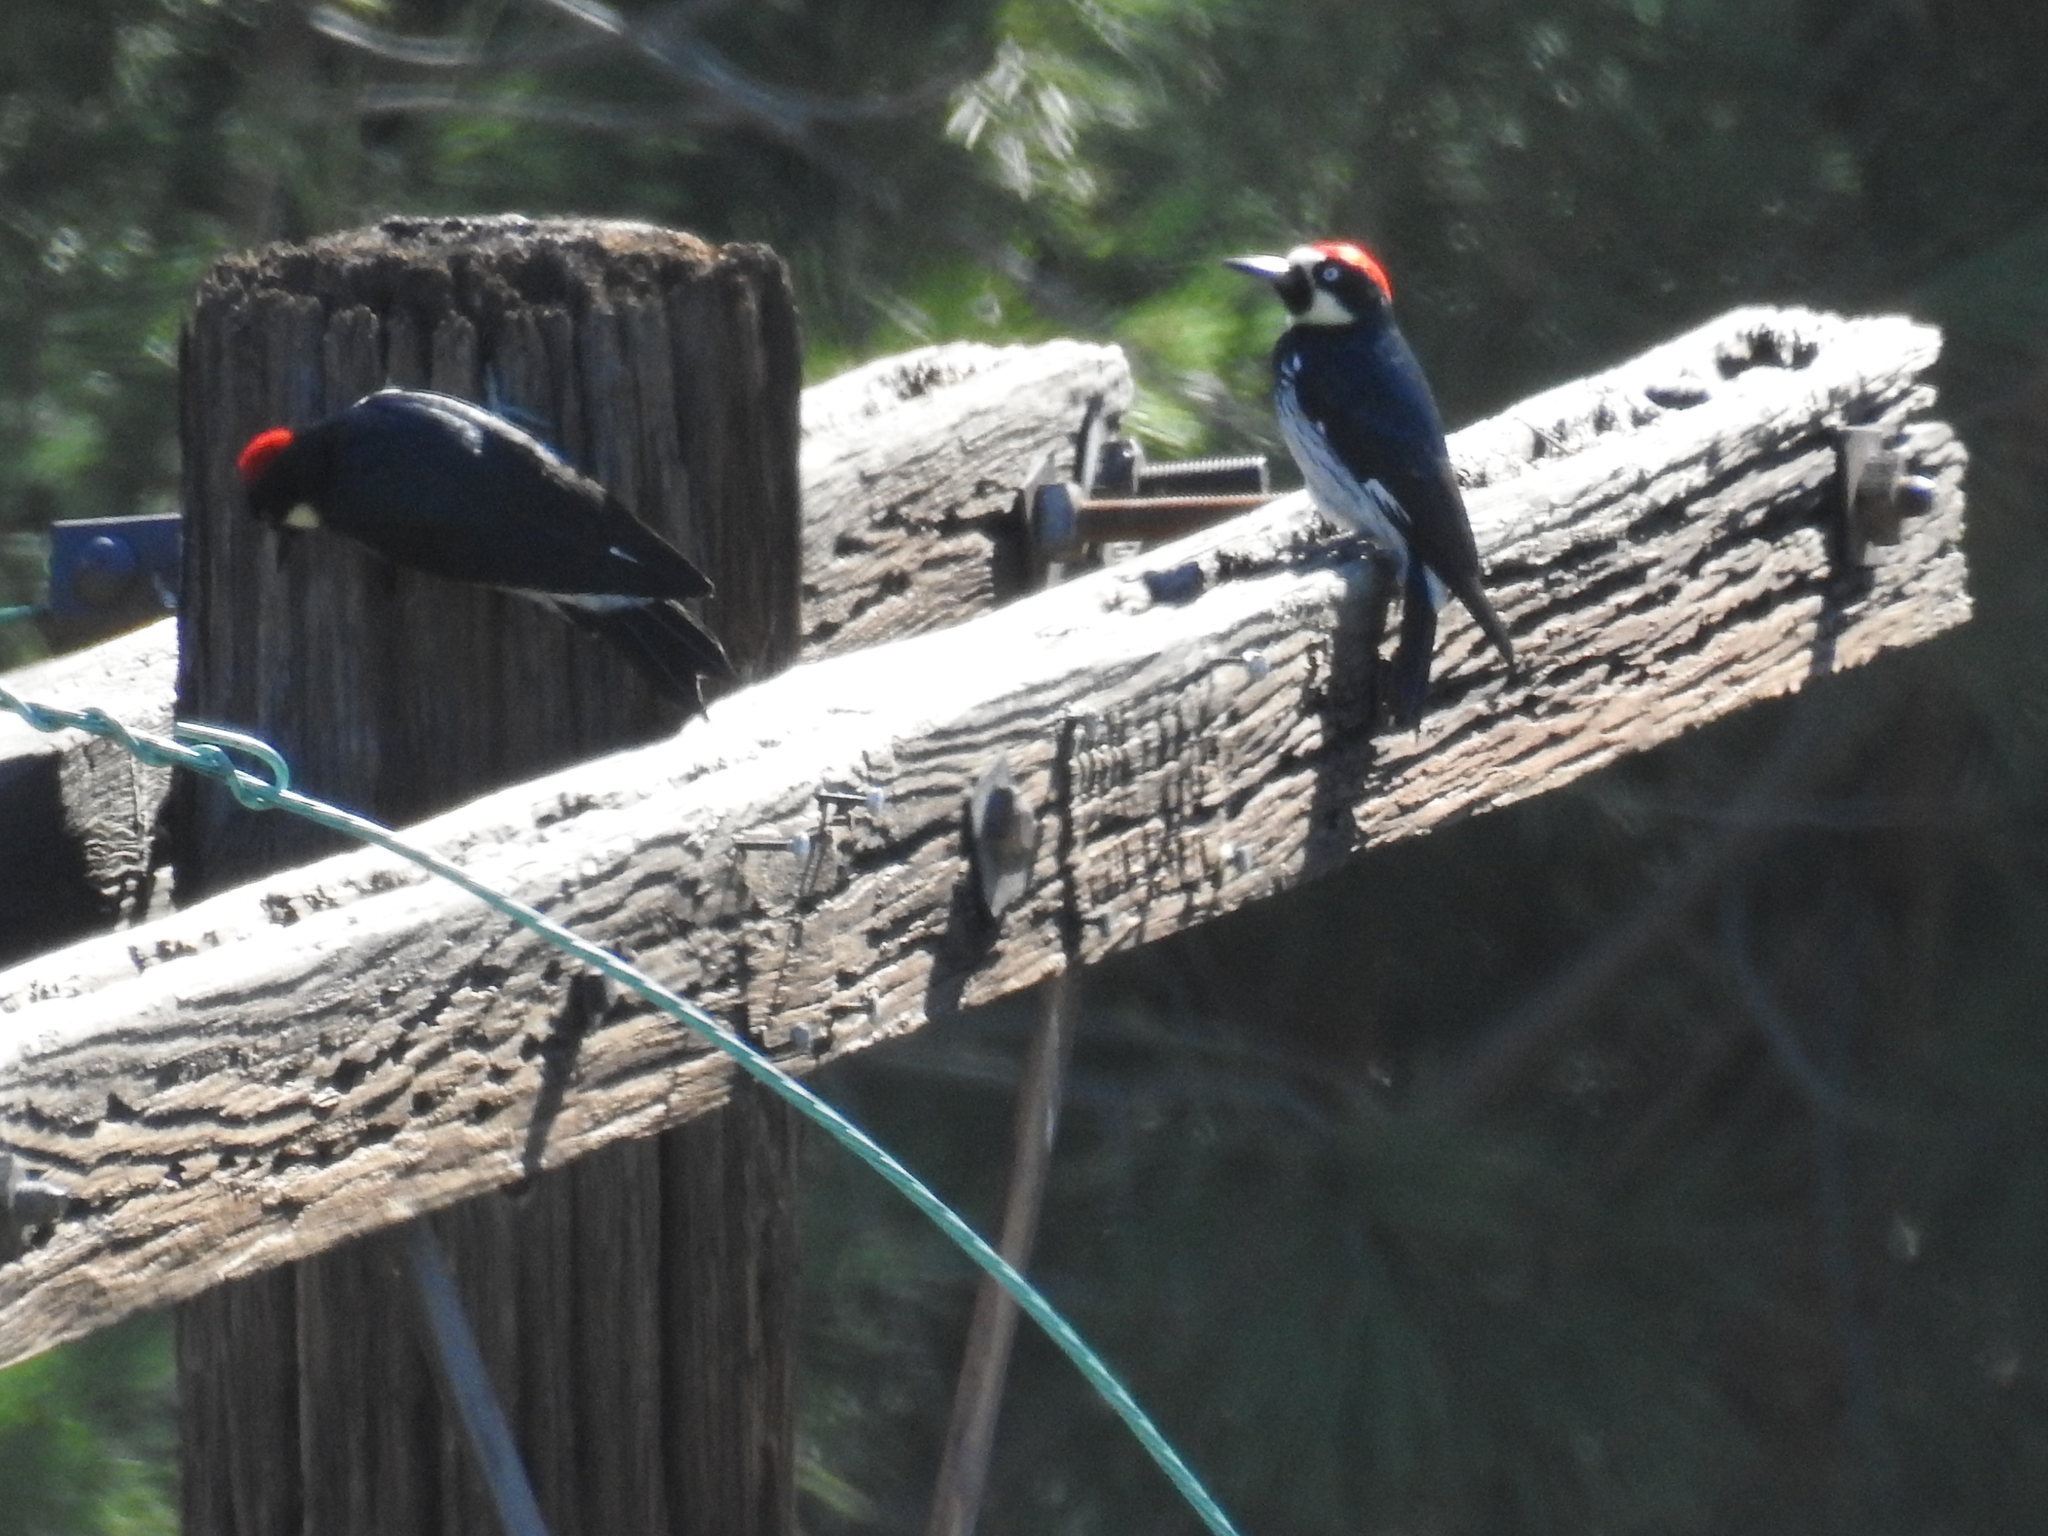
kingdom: Animalia
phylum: Chordata
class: Aves
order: Piciformes
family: Picidae
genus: Melanerpes
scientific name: Melanerpes formicivorus
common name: Acorn woodpecker
